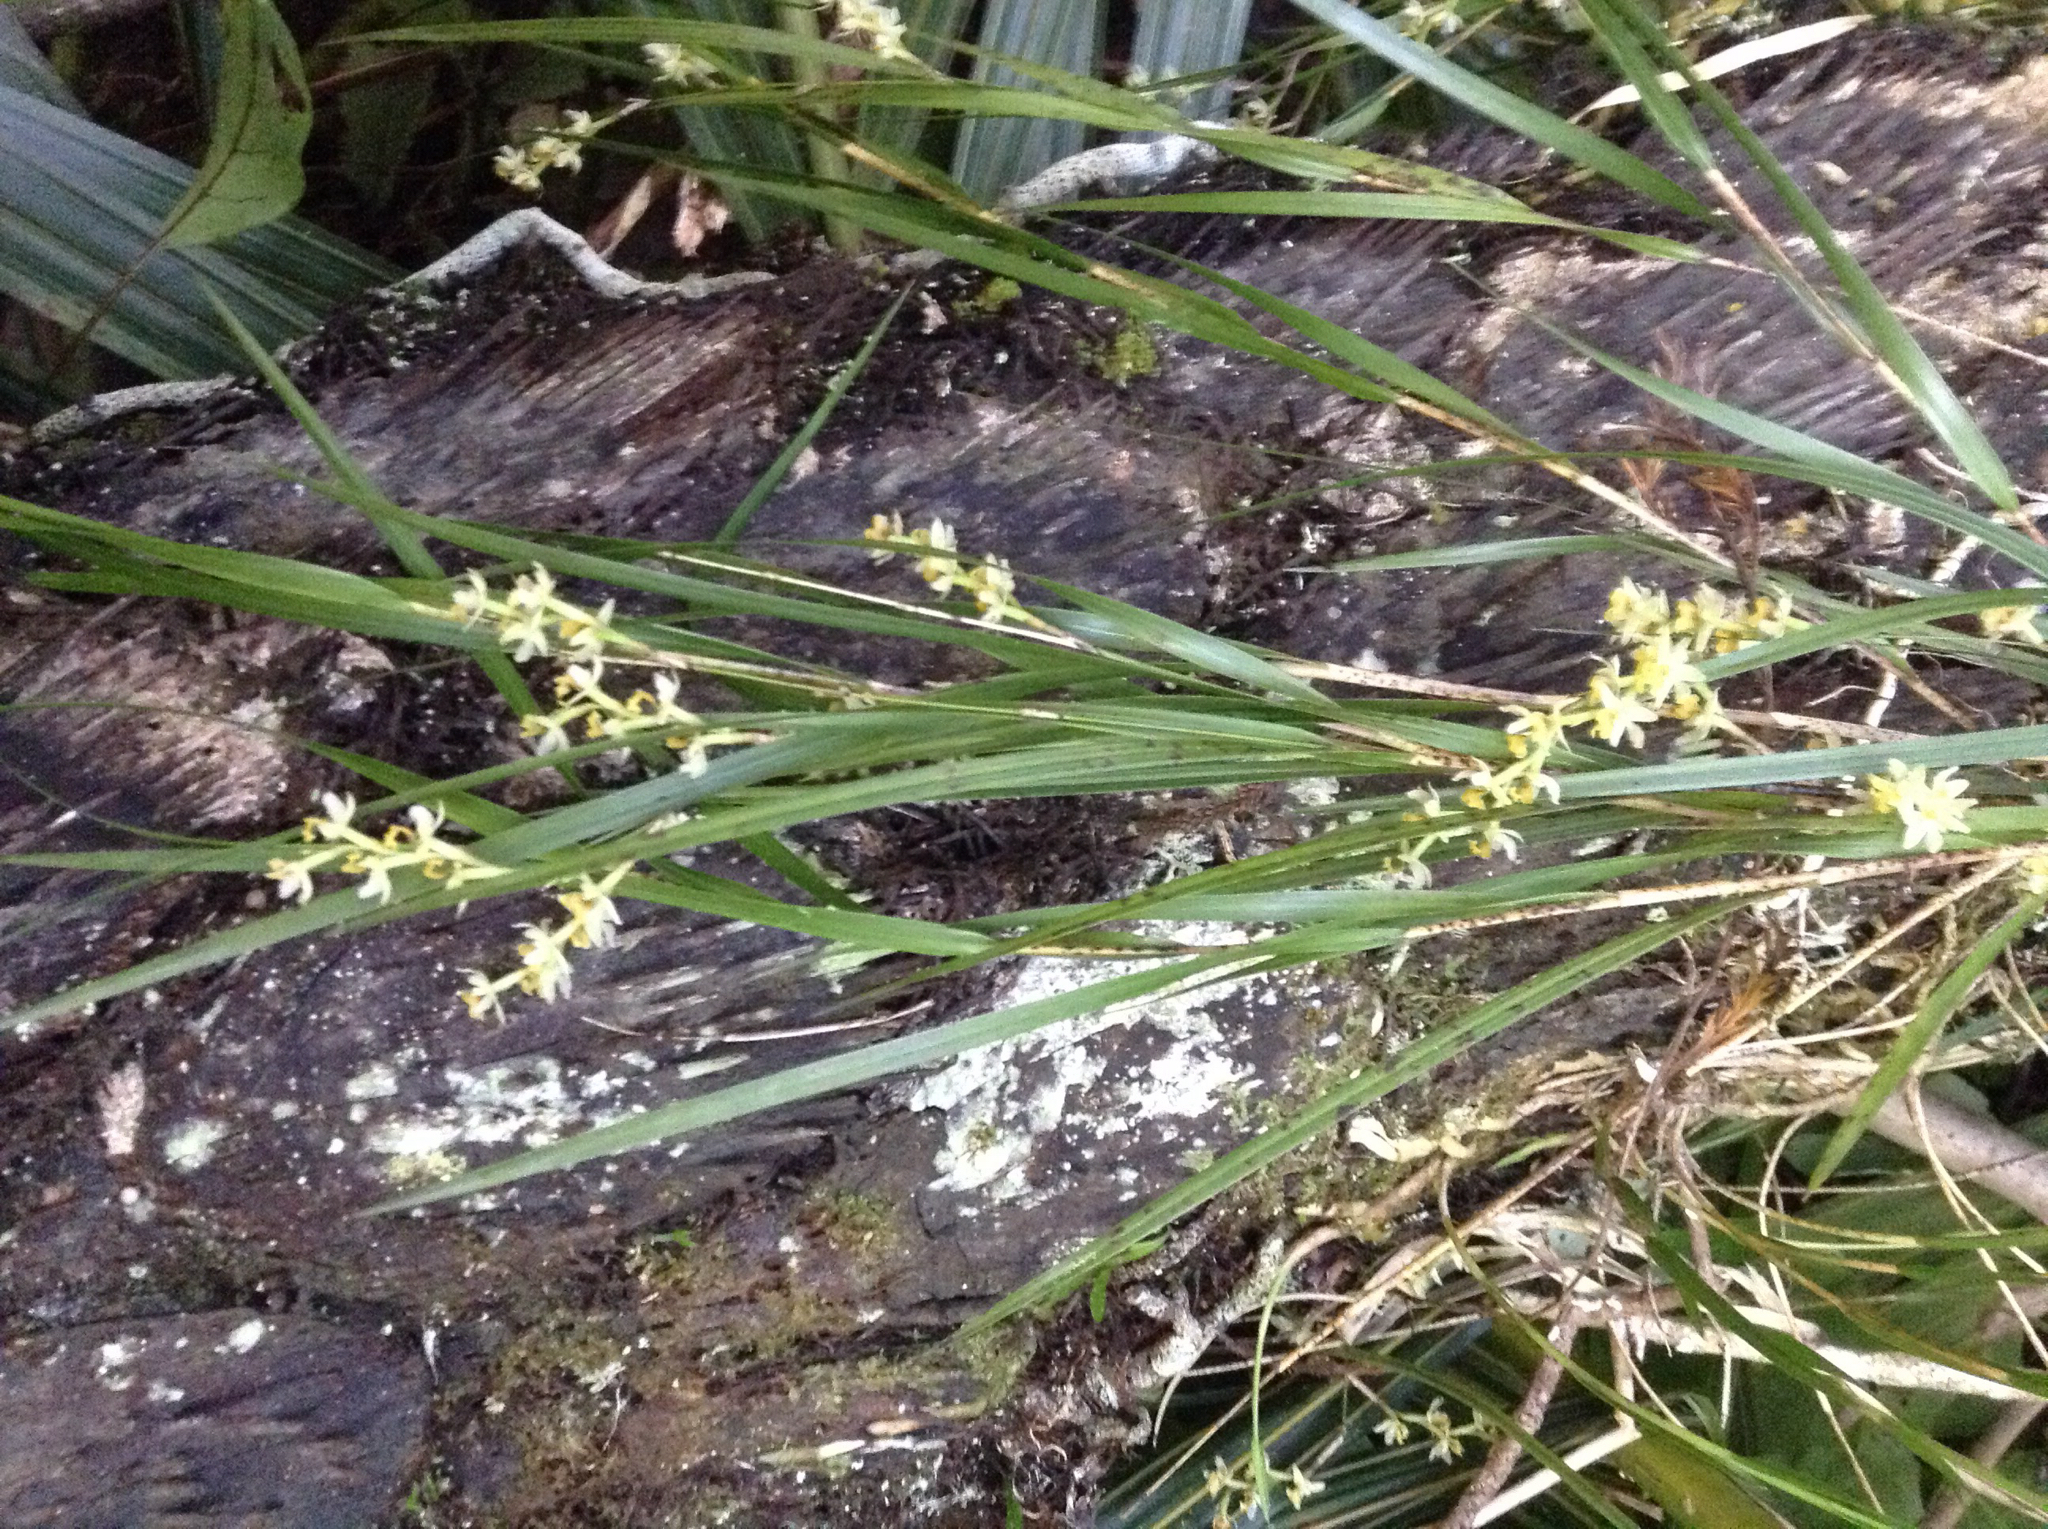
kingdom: Plantae
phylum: Tracheophyta
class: Liliopsida
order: Asparagales
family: Orchidaceae
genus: Earina
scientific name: Earina mucronata
